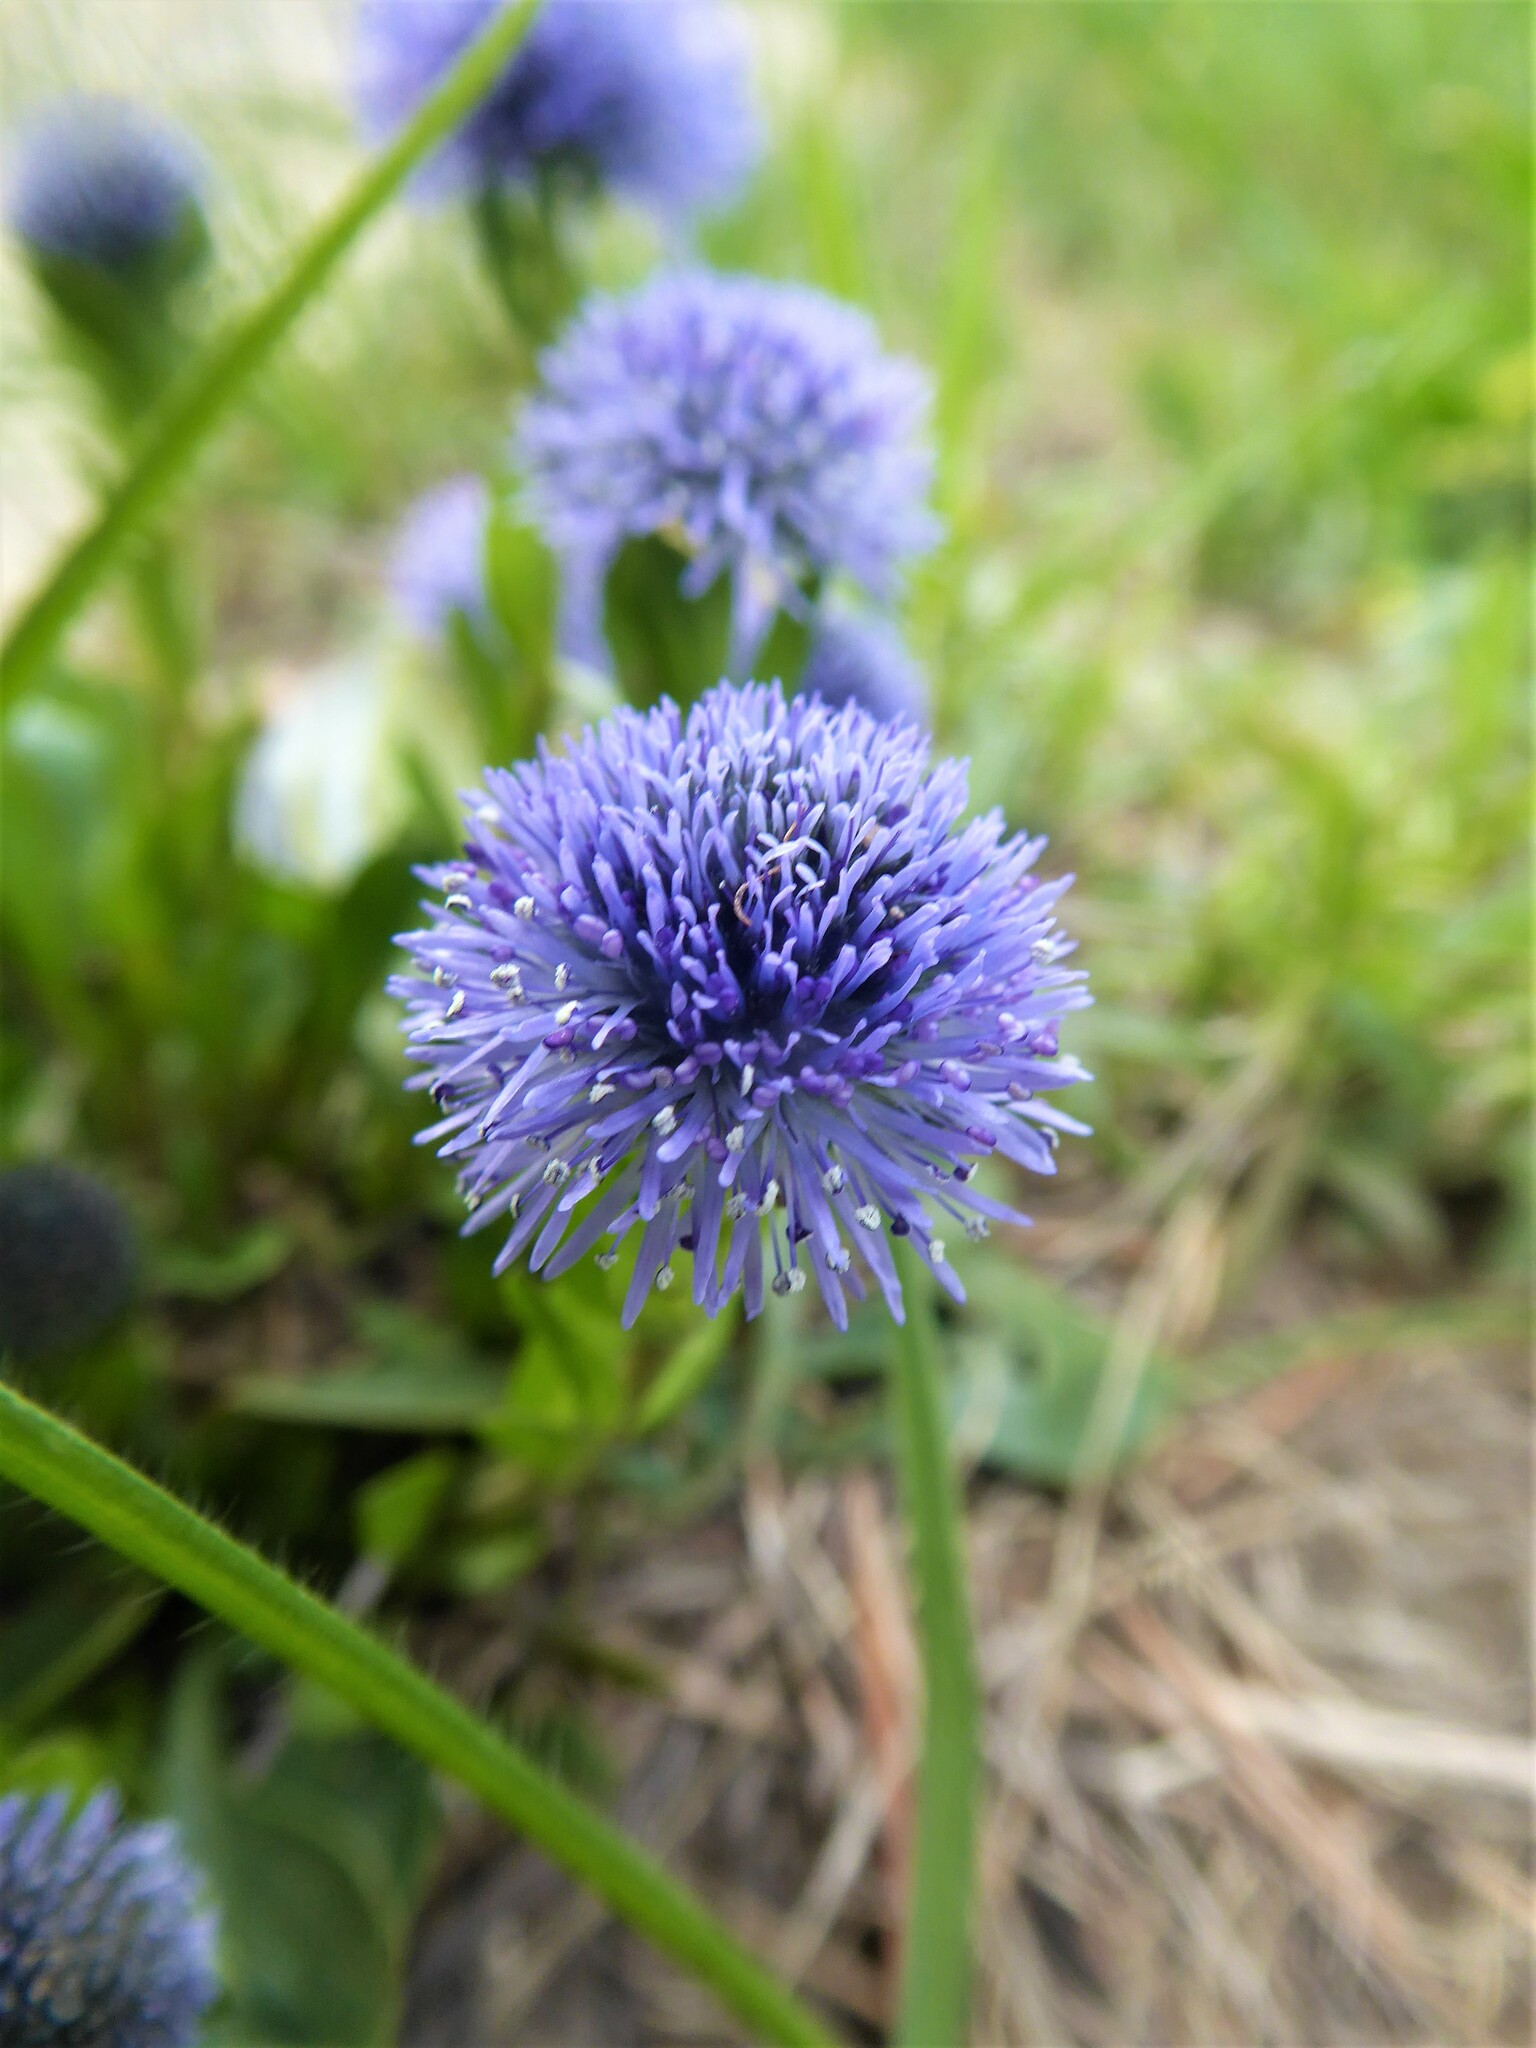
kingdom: Plantae
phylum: Tracheophyta
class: Magnoliopsida
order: Lamiales
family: Plantaginaceae
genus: Globularia
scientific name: Globularia bisnagarica
